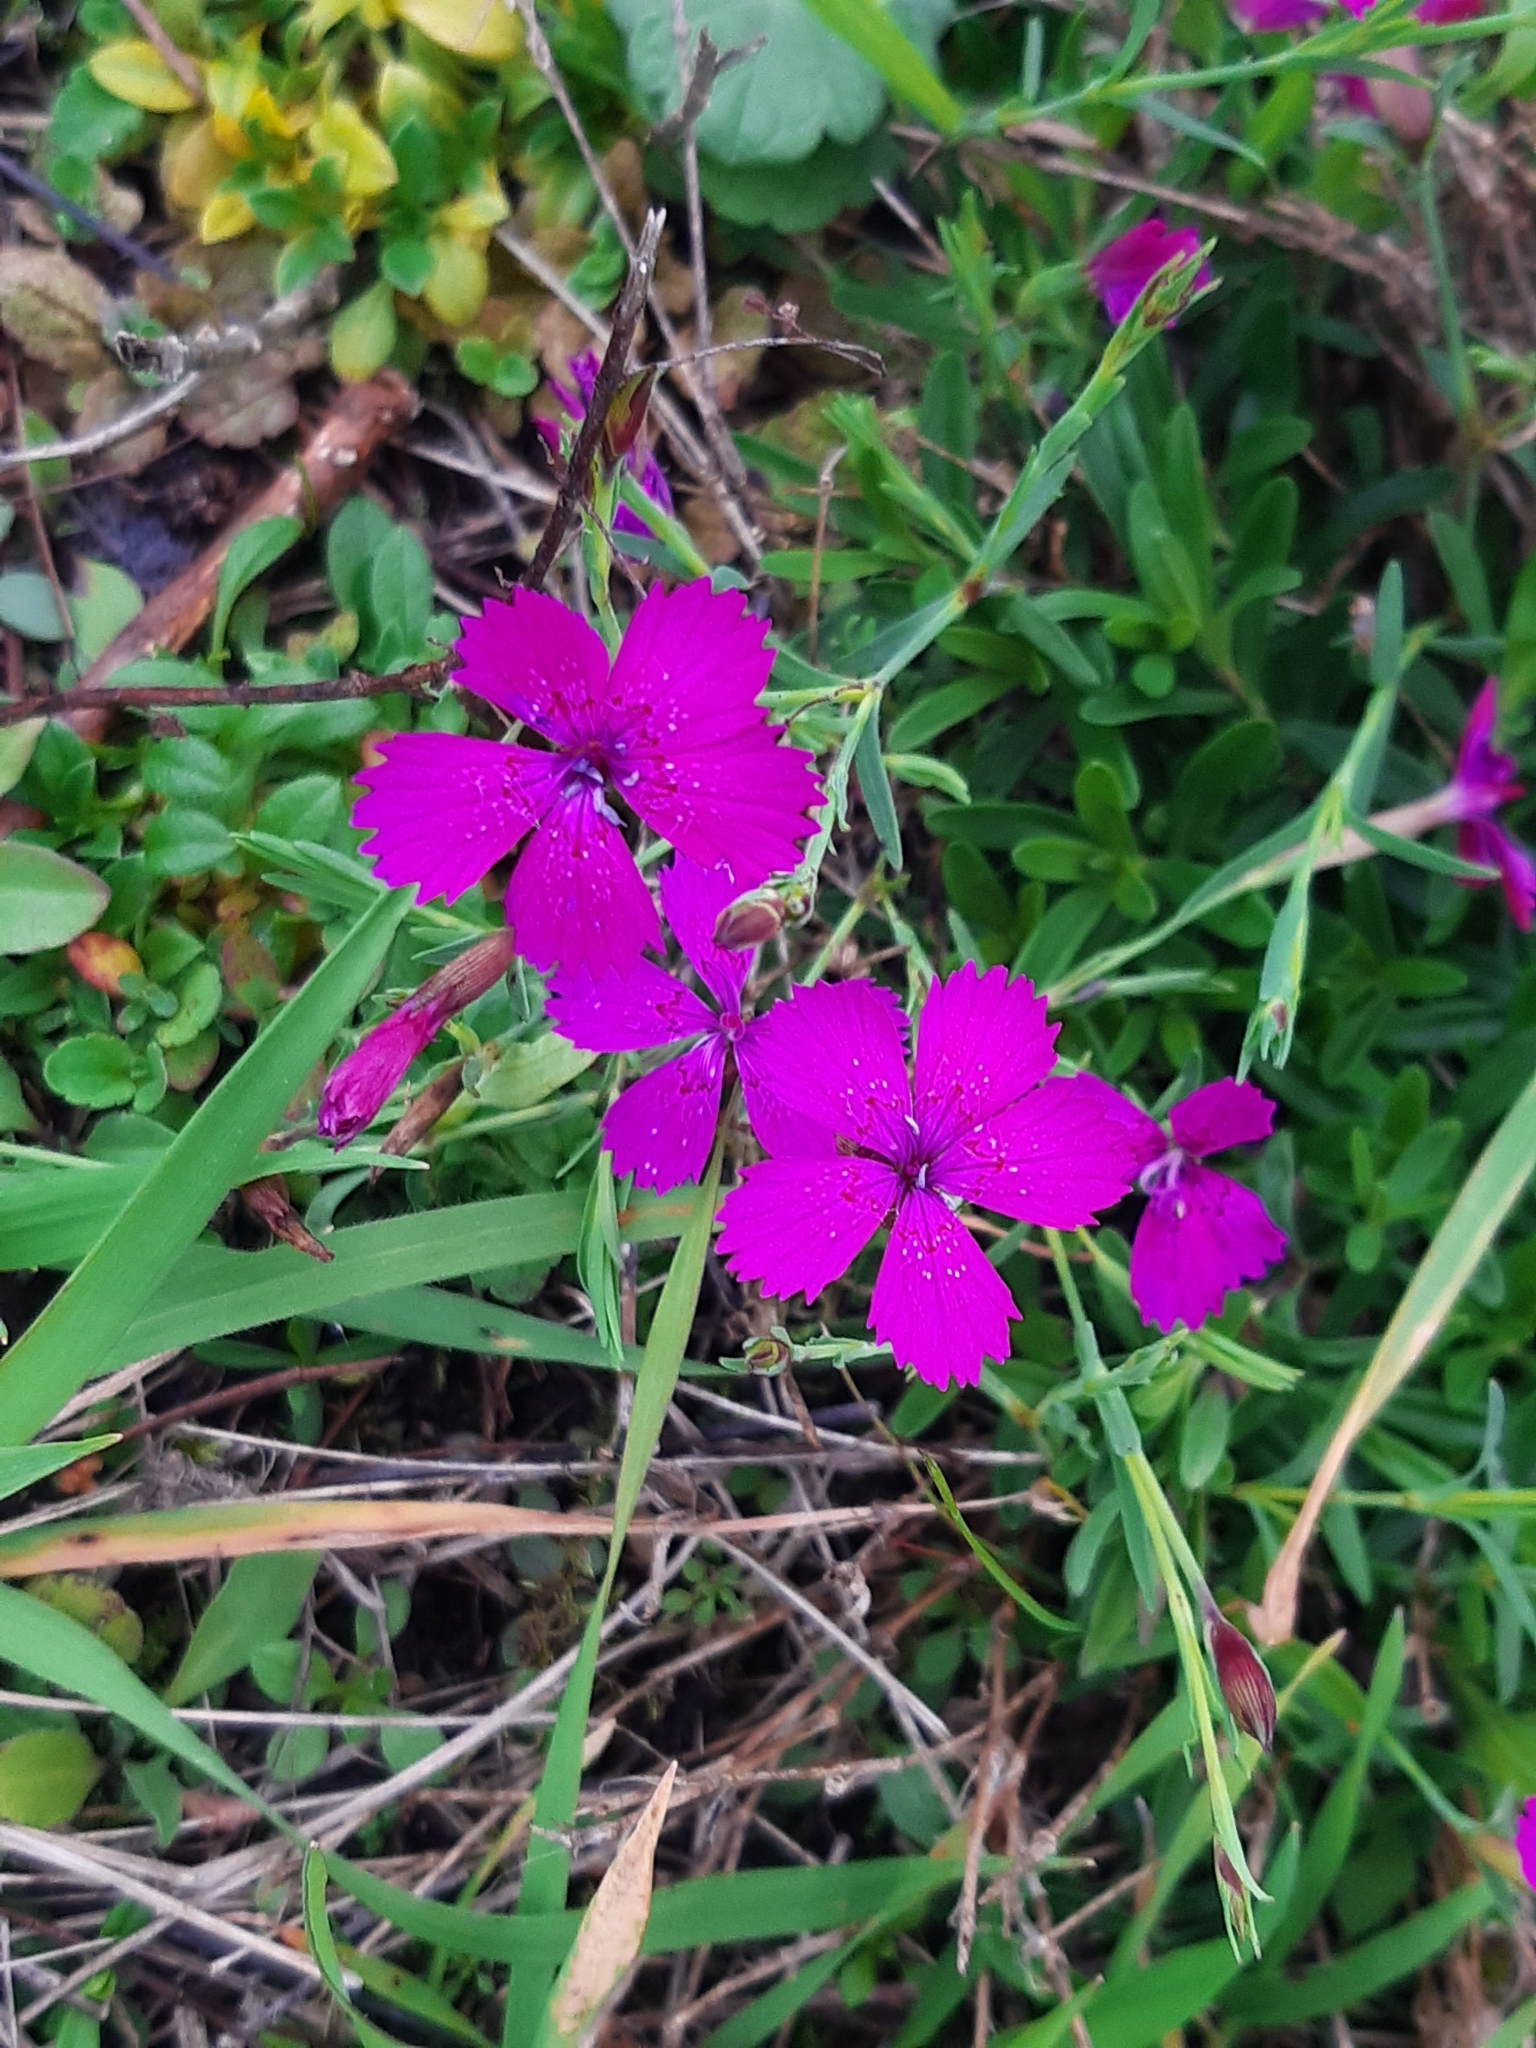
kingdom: Plantae
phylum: Tracheophyta
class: Magnoliopsida
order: Caryophyllales
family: Caryophyllaceae
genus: Dianthus
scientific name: Dianthus deltoides
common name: Maiden pink
